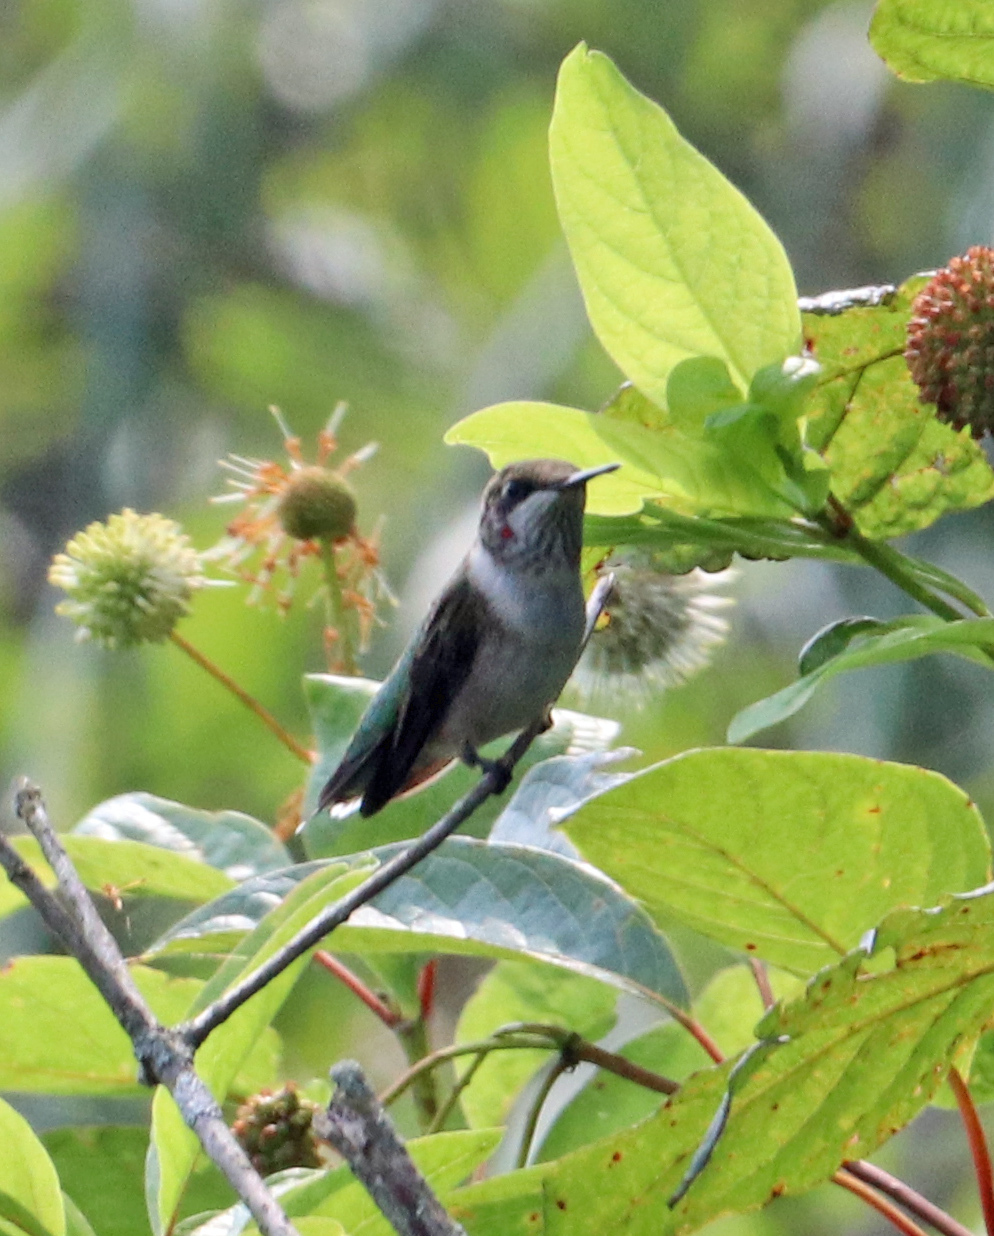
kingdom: Animalia
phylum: Chordata
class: Aves
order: Apodiformes
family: Trochilidae
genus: Archilochus
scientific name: Archilochus colubris
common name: Ruby-throated hummingbird
